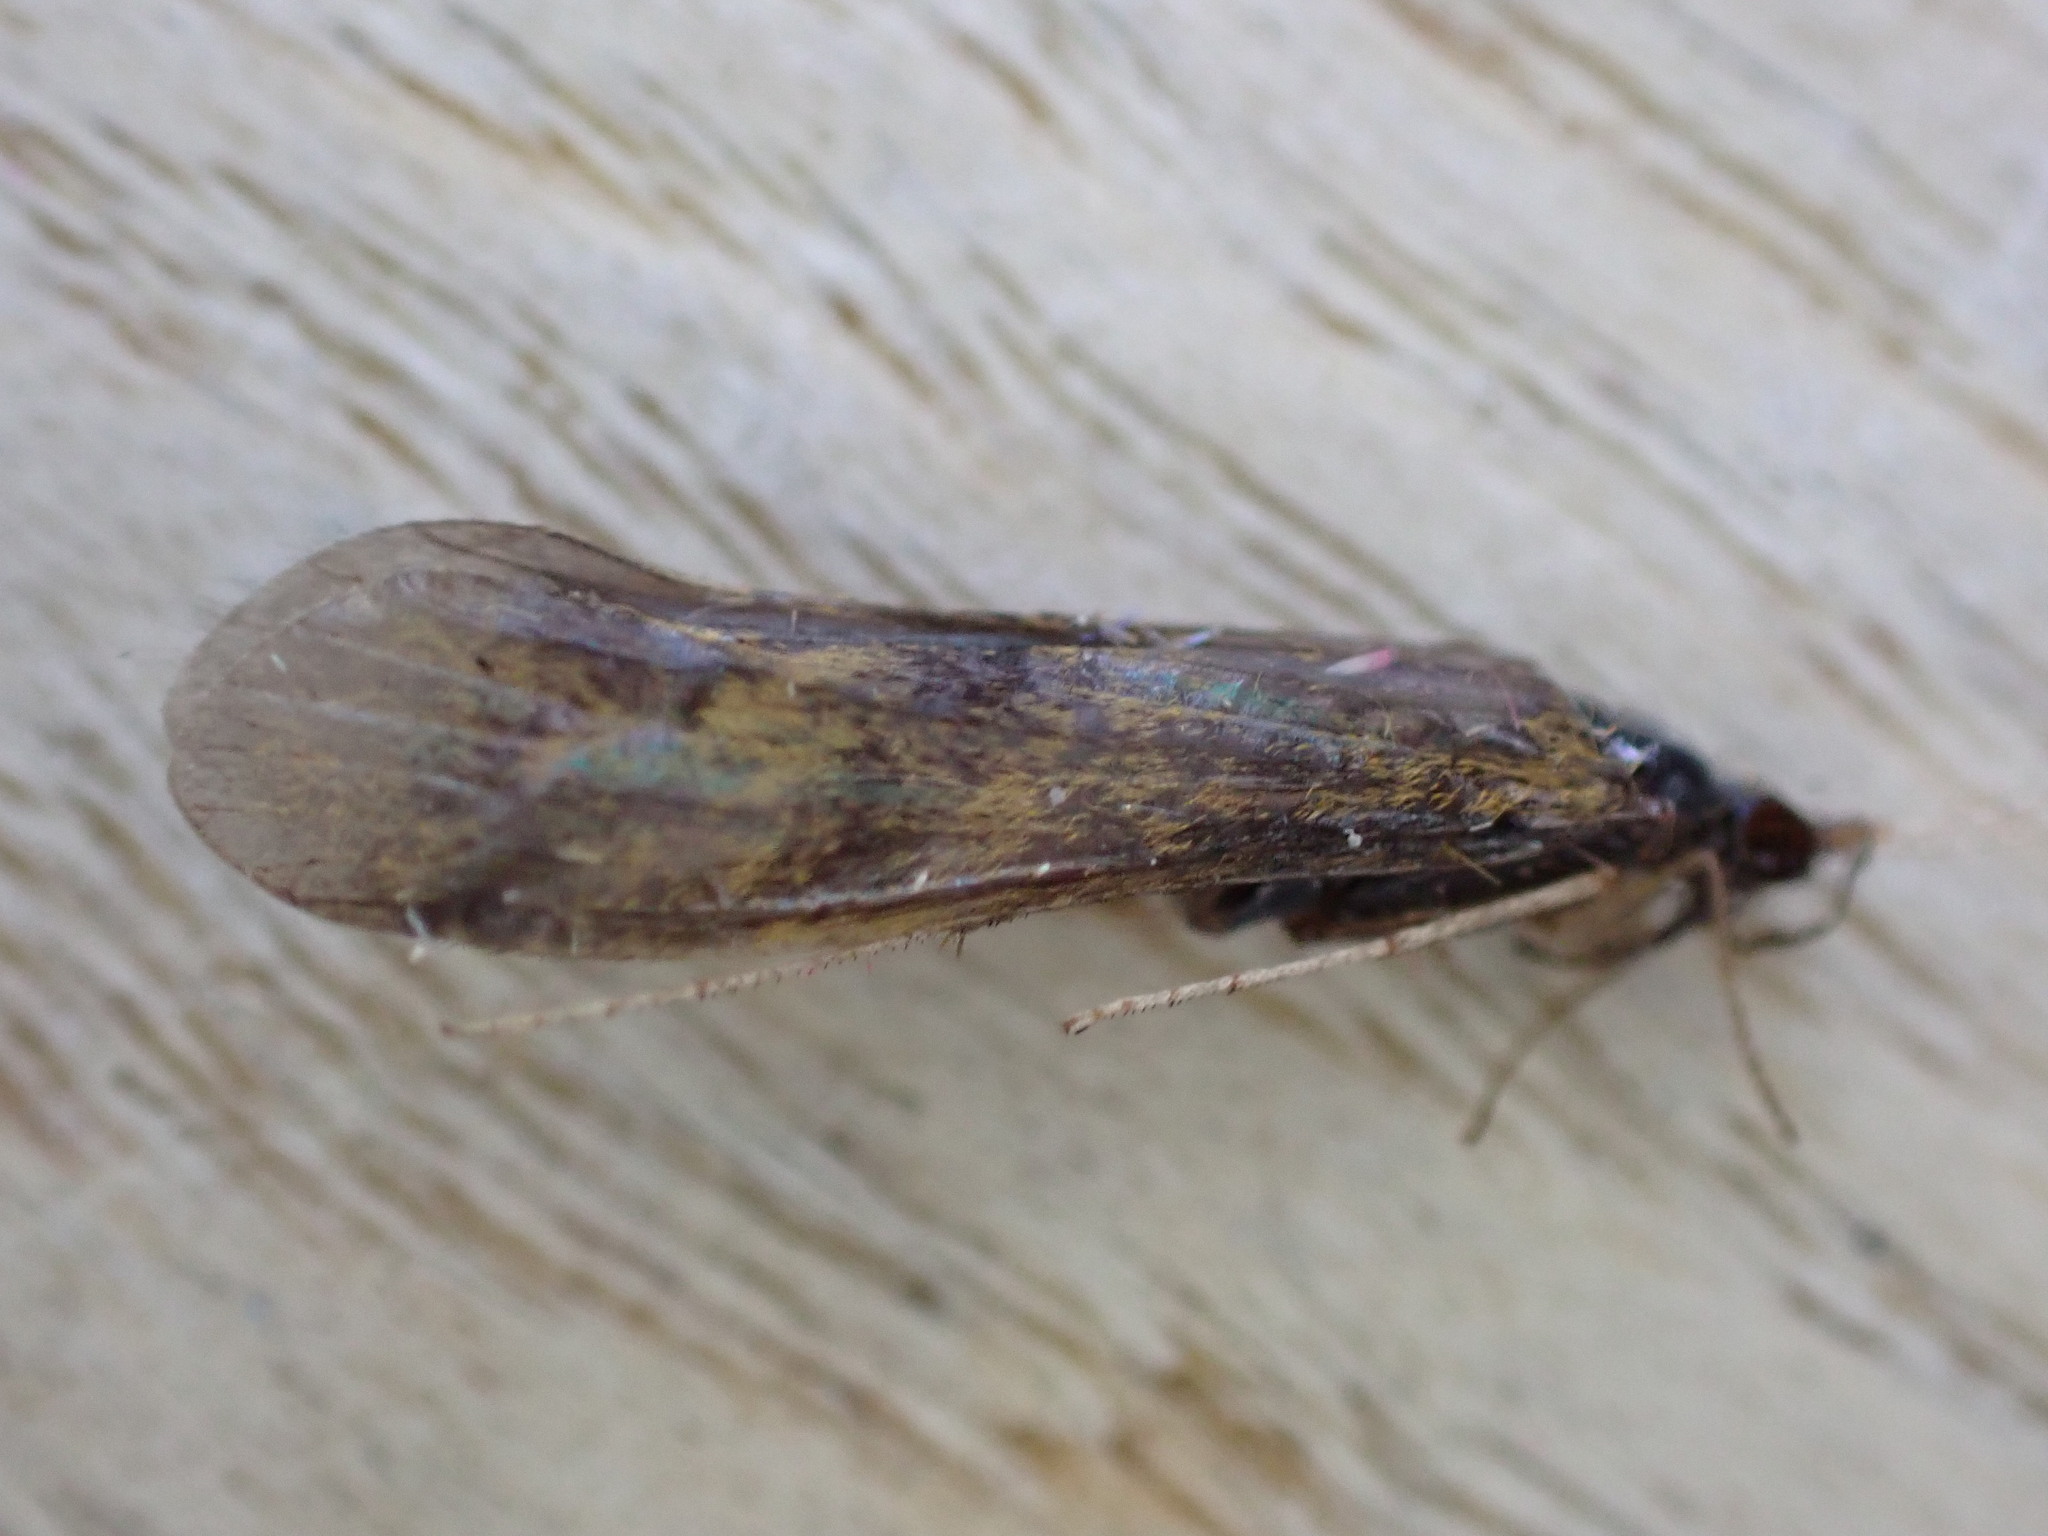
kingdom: Animalia
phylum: Arthropoda
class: Insecta
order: Trichoptera
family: Leptoceridae
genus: Mystacides
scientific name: Mystacides longicornis
